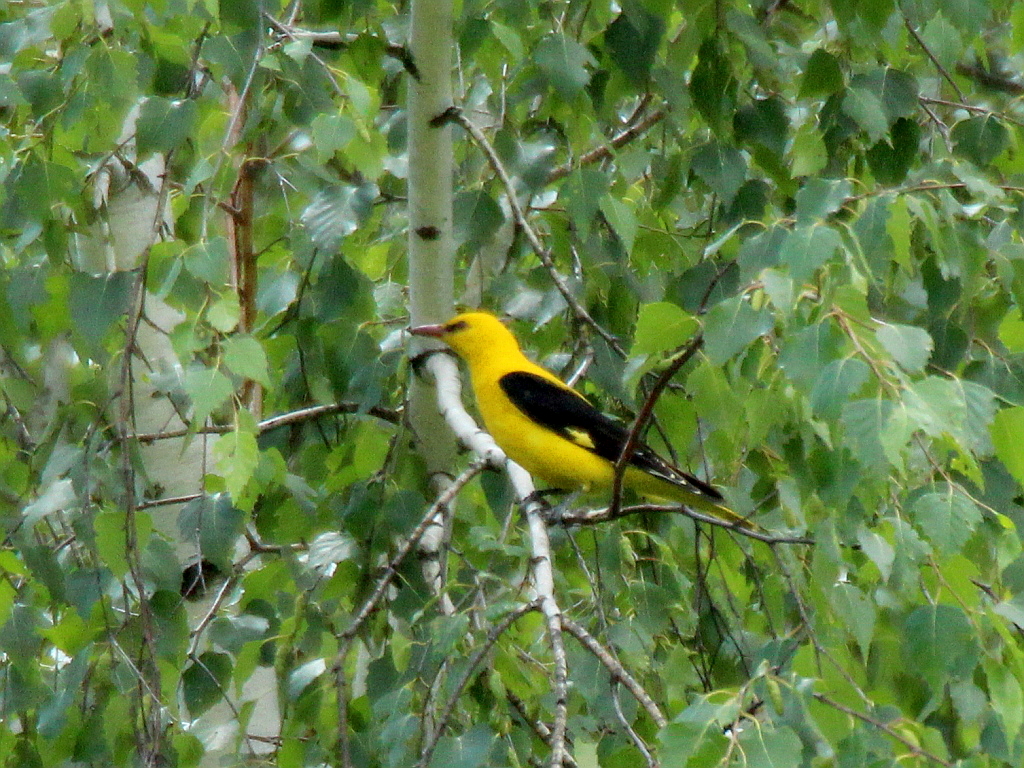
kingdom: Animalia
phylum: Chordata
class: Aves
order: Passeriformes
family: Oriolidae
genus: Oriolus
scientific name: Oriolus oriolus
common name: Eurasian golden oriole
